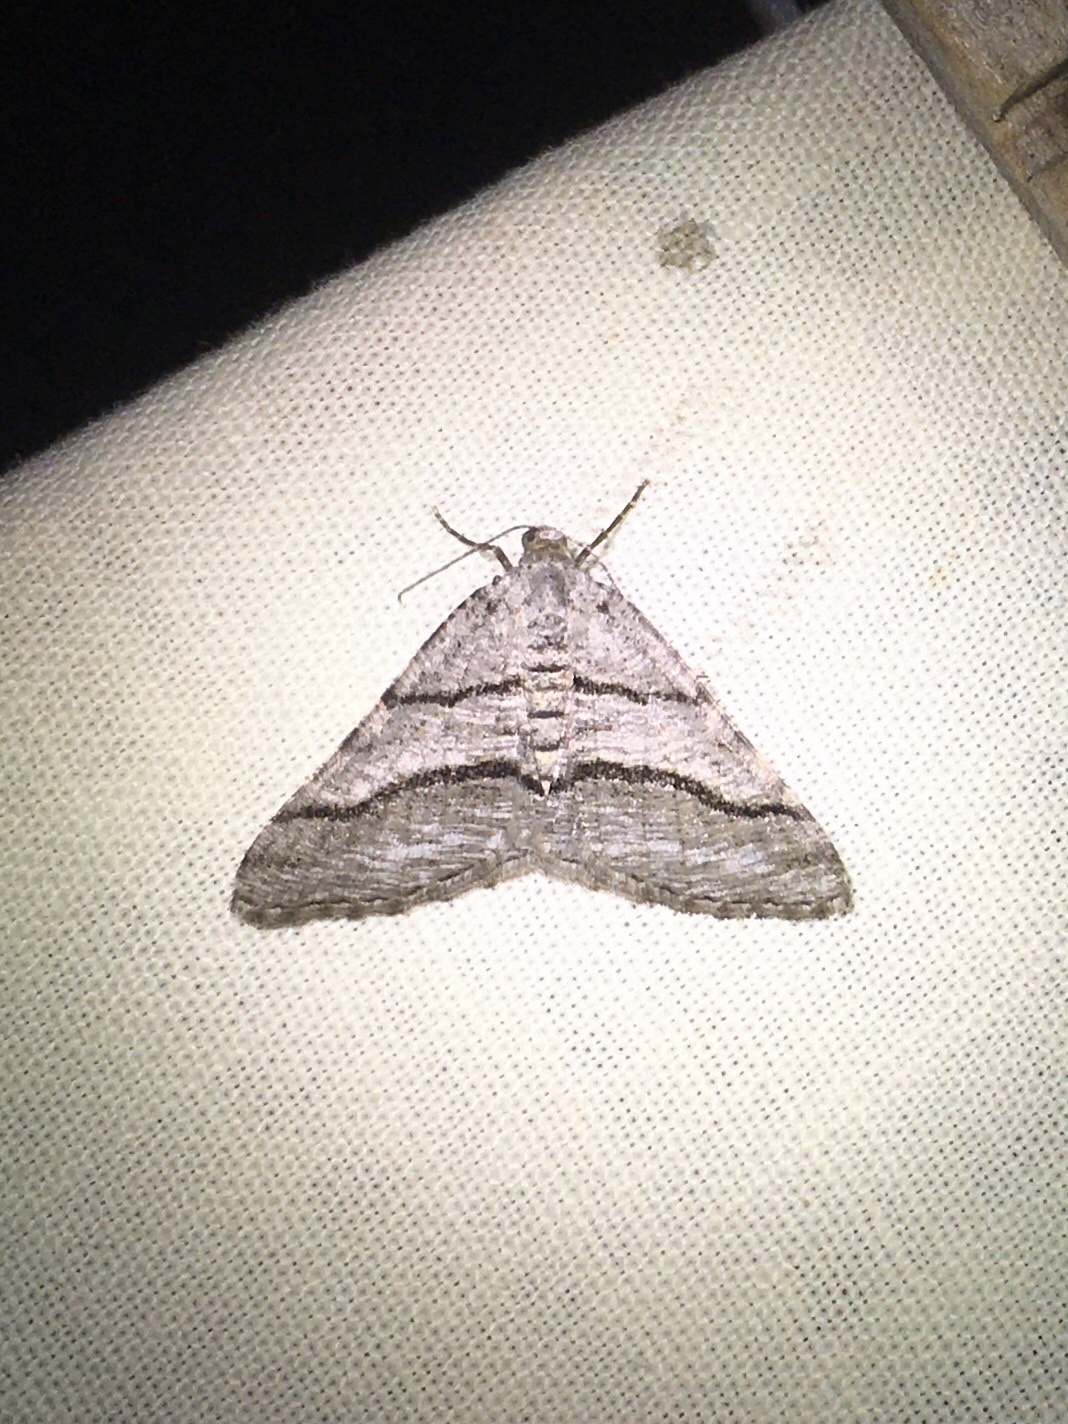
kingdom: Animalia
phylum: Arthropoda
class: Insecta
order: Lepidoptera
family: Geometridae
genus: Digrammia
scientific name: Digrammia continuata
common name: Curve-lined angle
